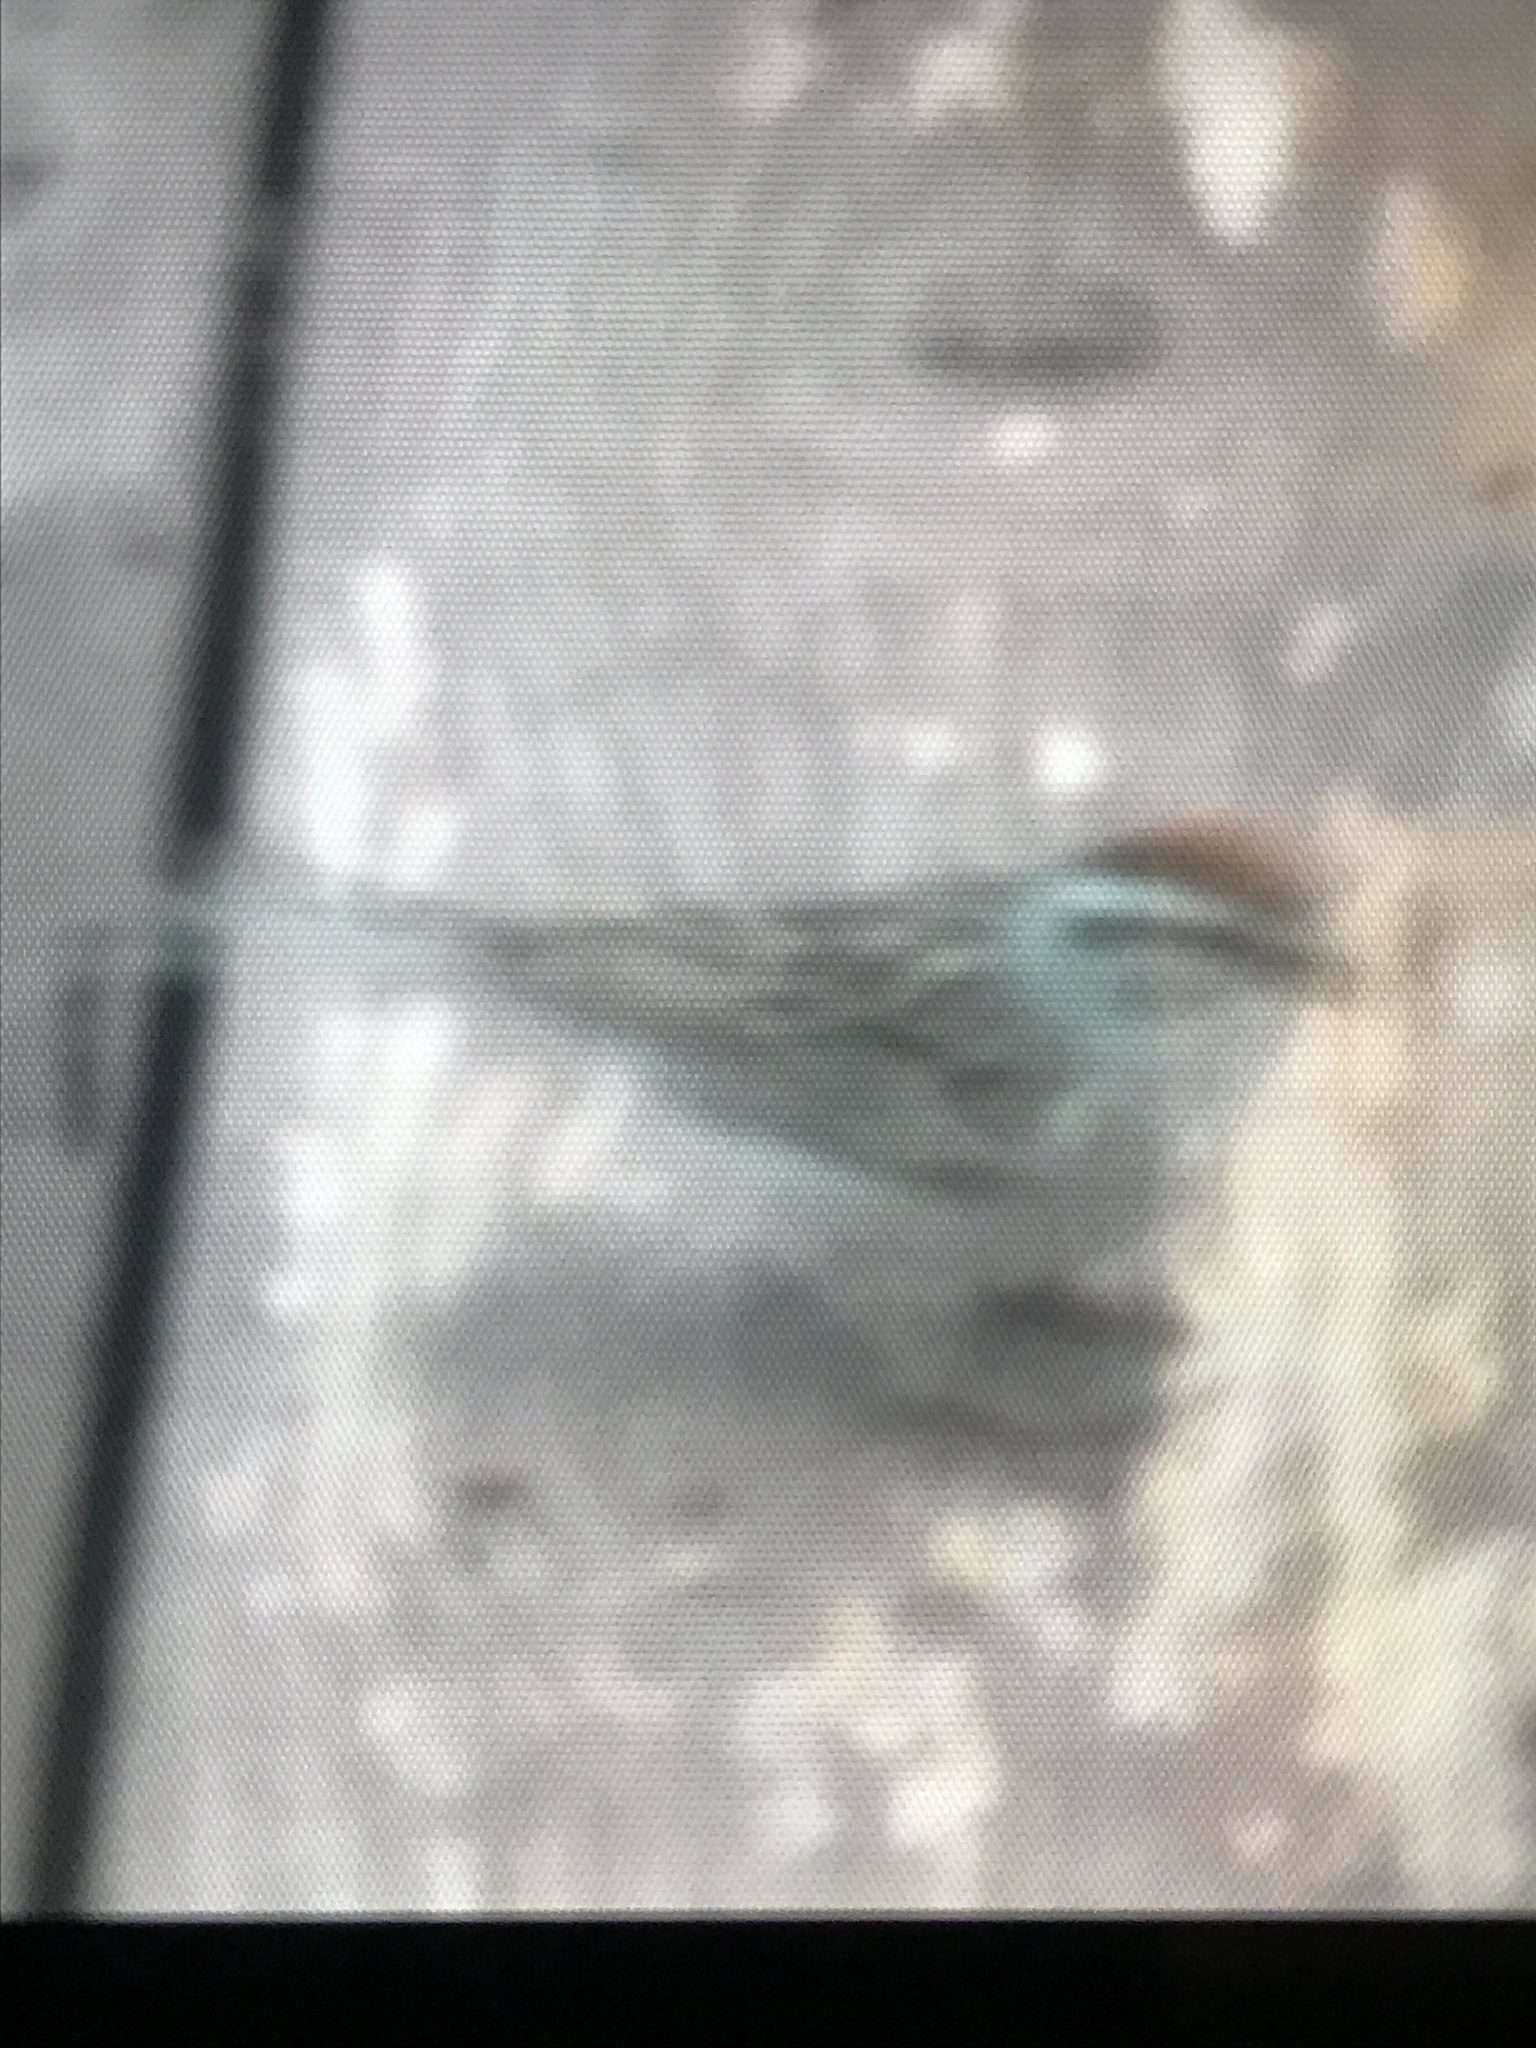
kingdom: Animalia
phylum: Chordata
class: Aves
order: Passeriformes
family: Passerellidae
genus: Spizella
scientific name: Spizella passerina
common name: Chipping sparrow
